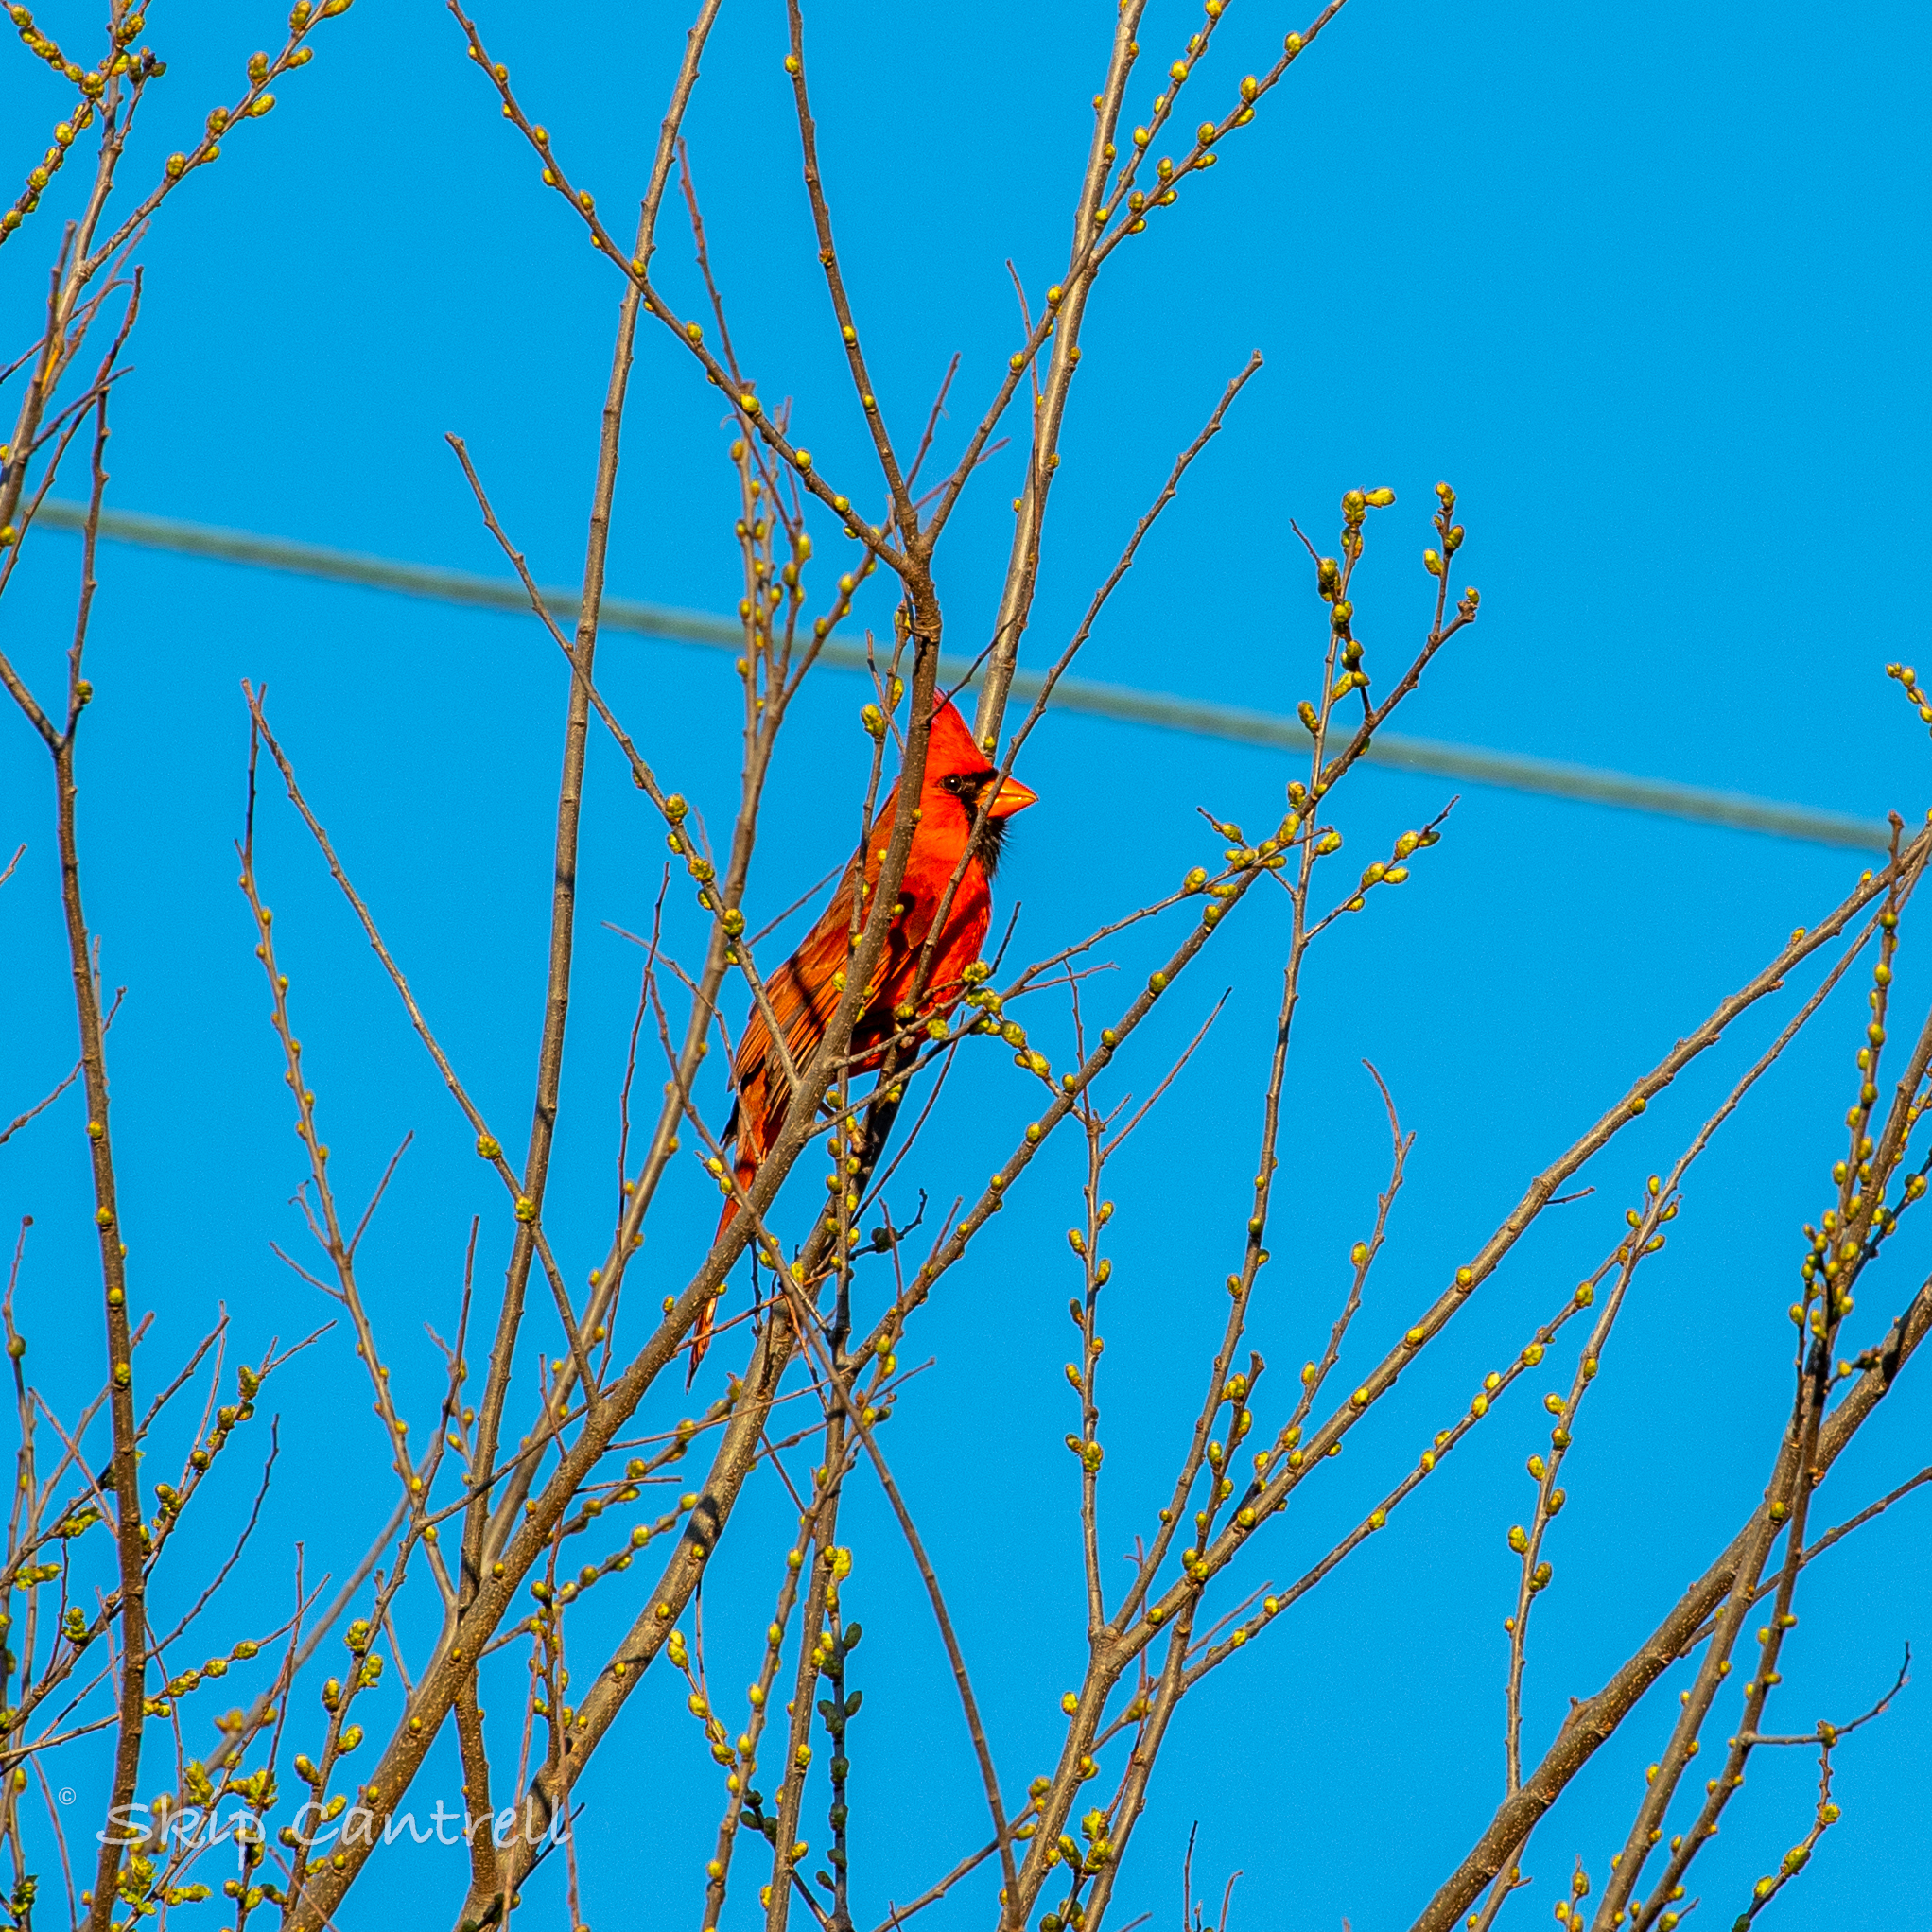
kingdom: Animalia
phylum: Chordata
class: Aves
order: Passeriformes
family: Cardinalidae
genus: Cardinalis
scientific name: Cardinalis cardinalis
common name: Northern cardinal
